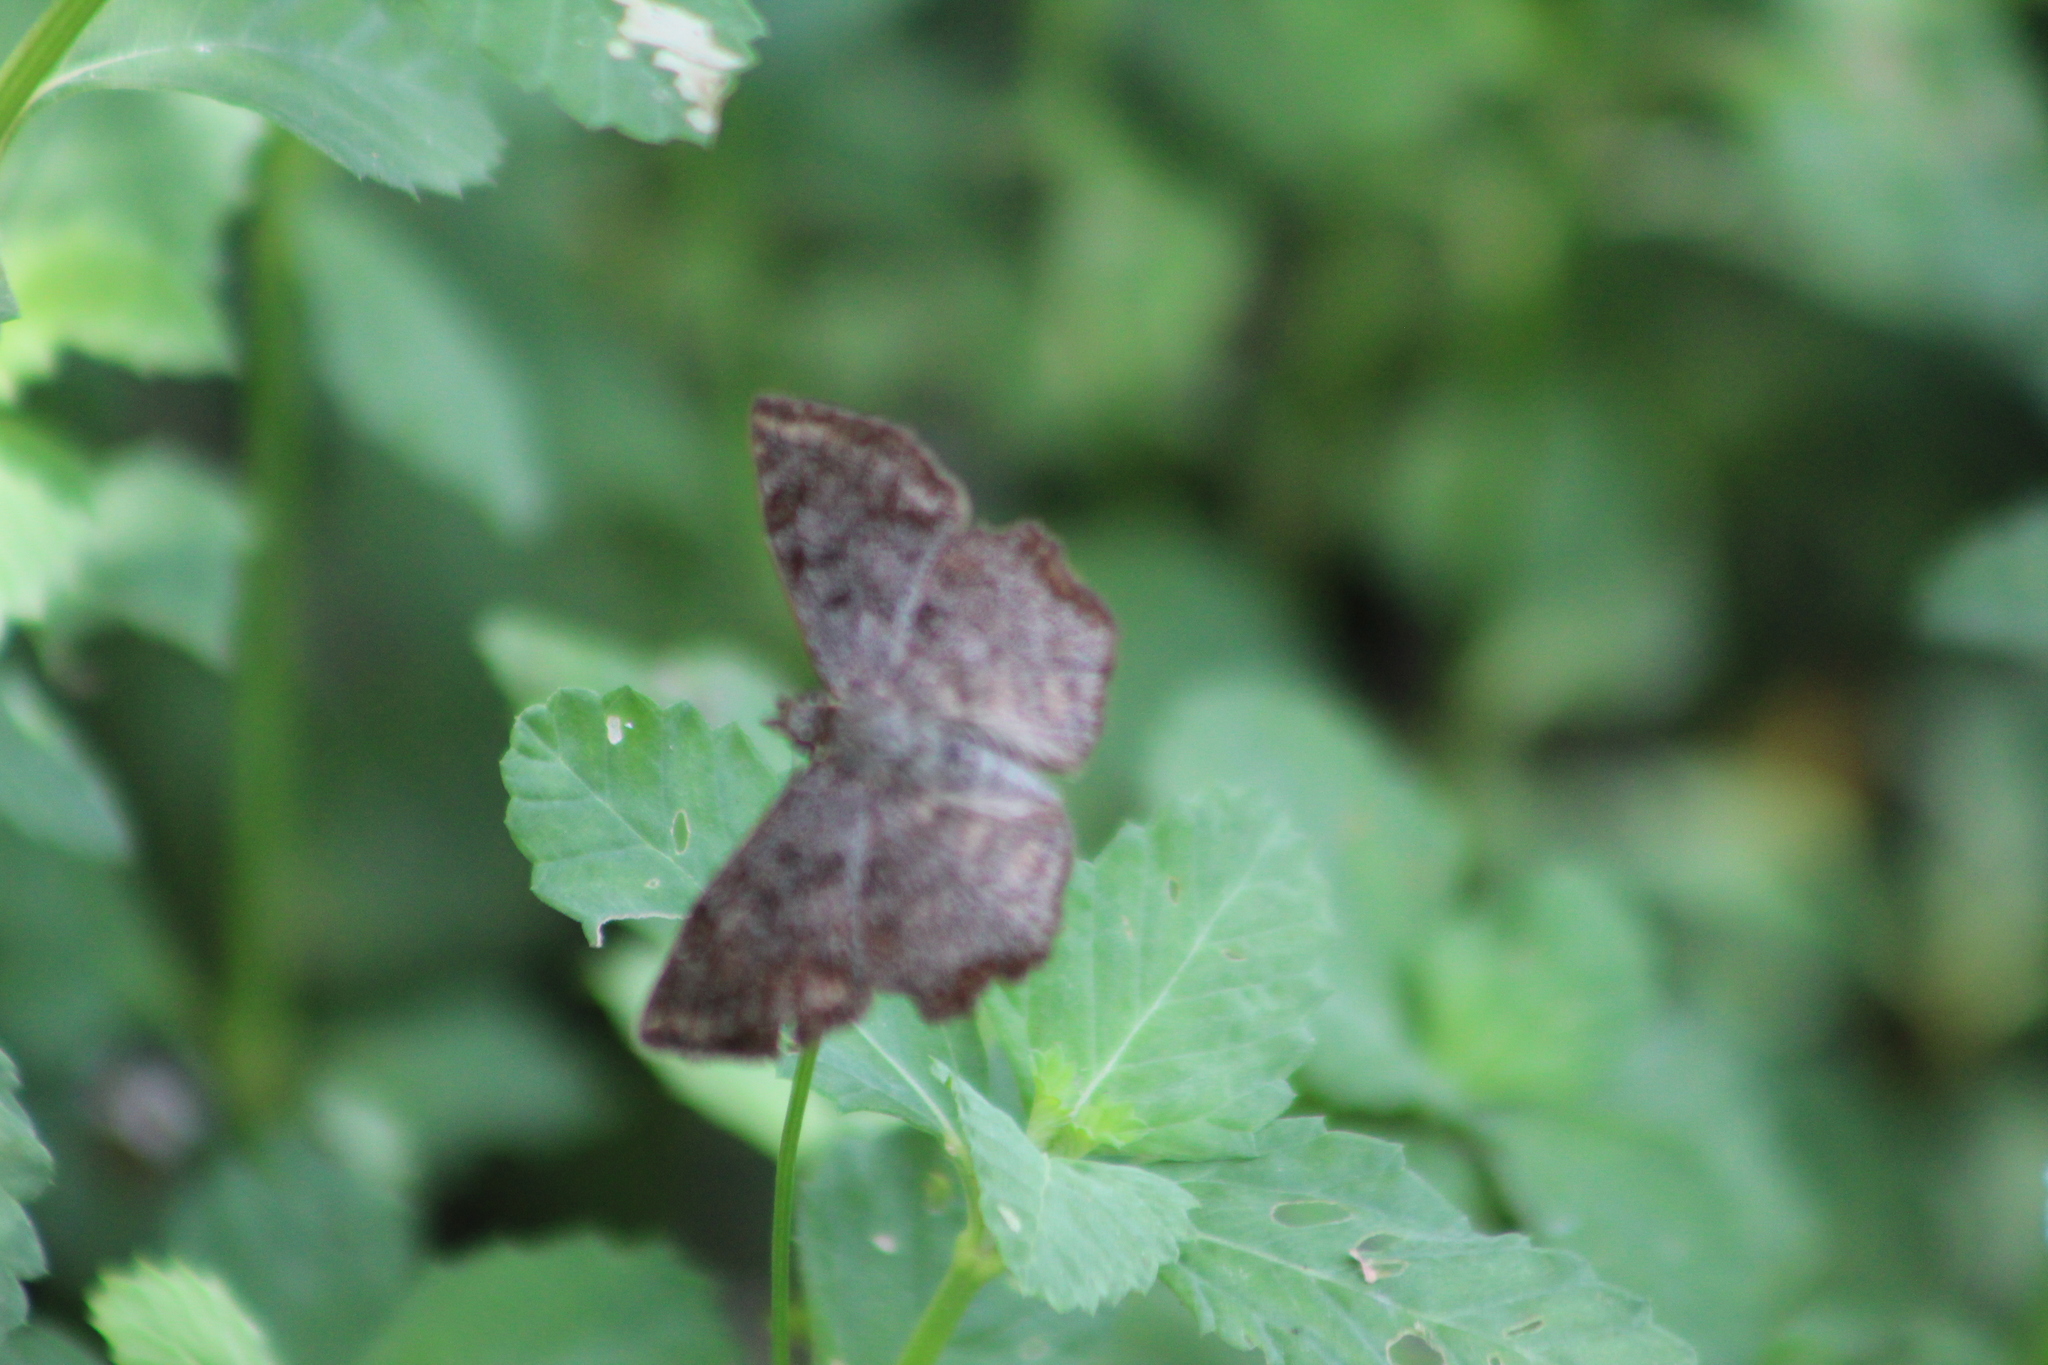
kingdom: Animalia
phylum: Arthropoda
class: Insecta
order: Lepidoptera
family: Hesperiidae
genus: Antigonus
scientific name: Antigonus erosus
